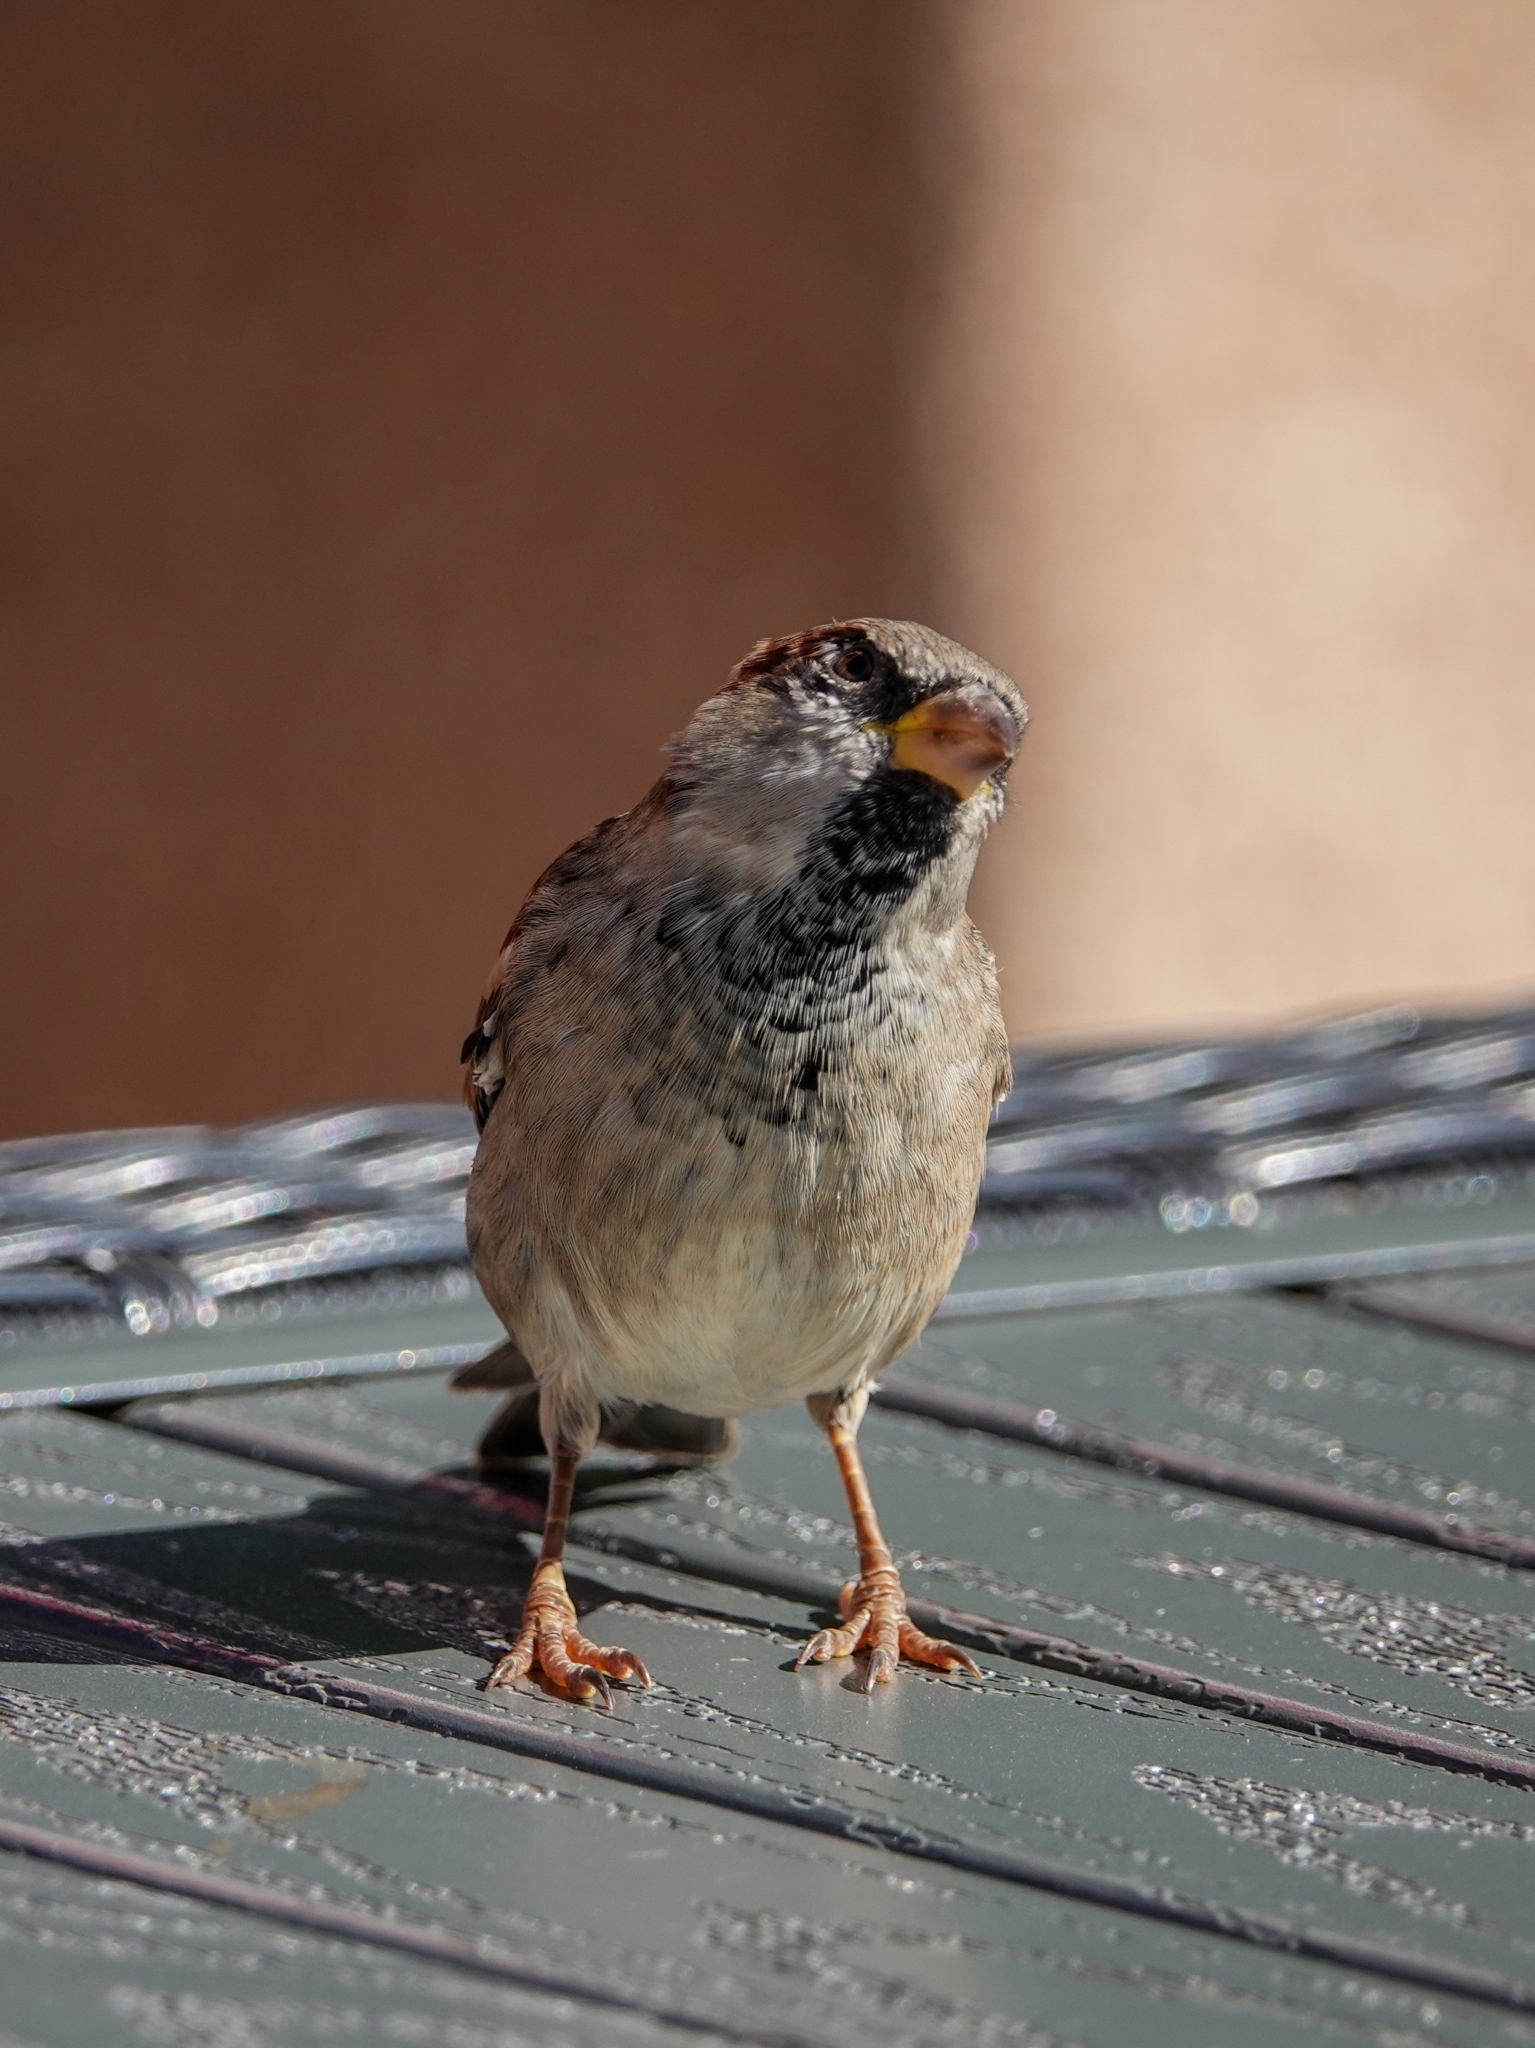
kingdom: Animalia
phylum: Chordata
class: Aves
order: Passeriformes
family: Passeridae
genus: Passer
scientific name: Passer domesticus
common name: House sparrow
